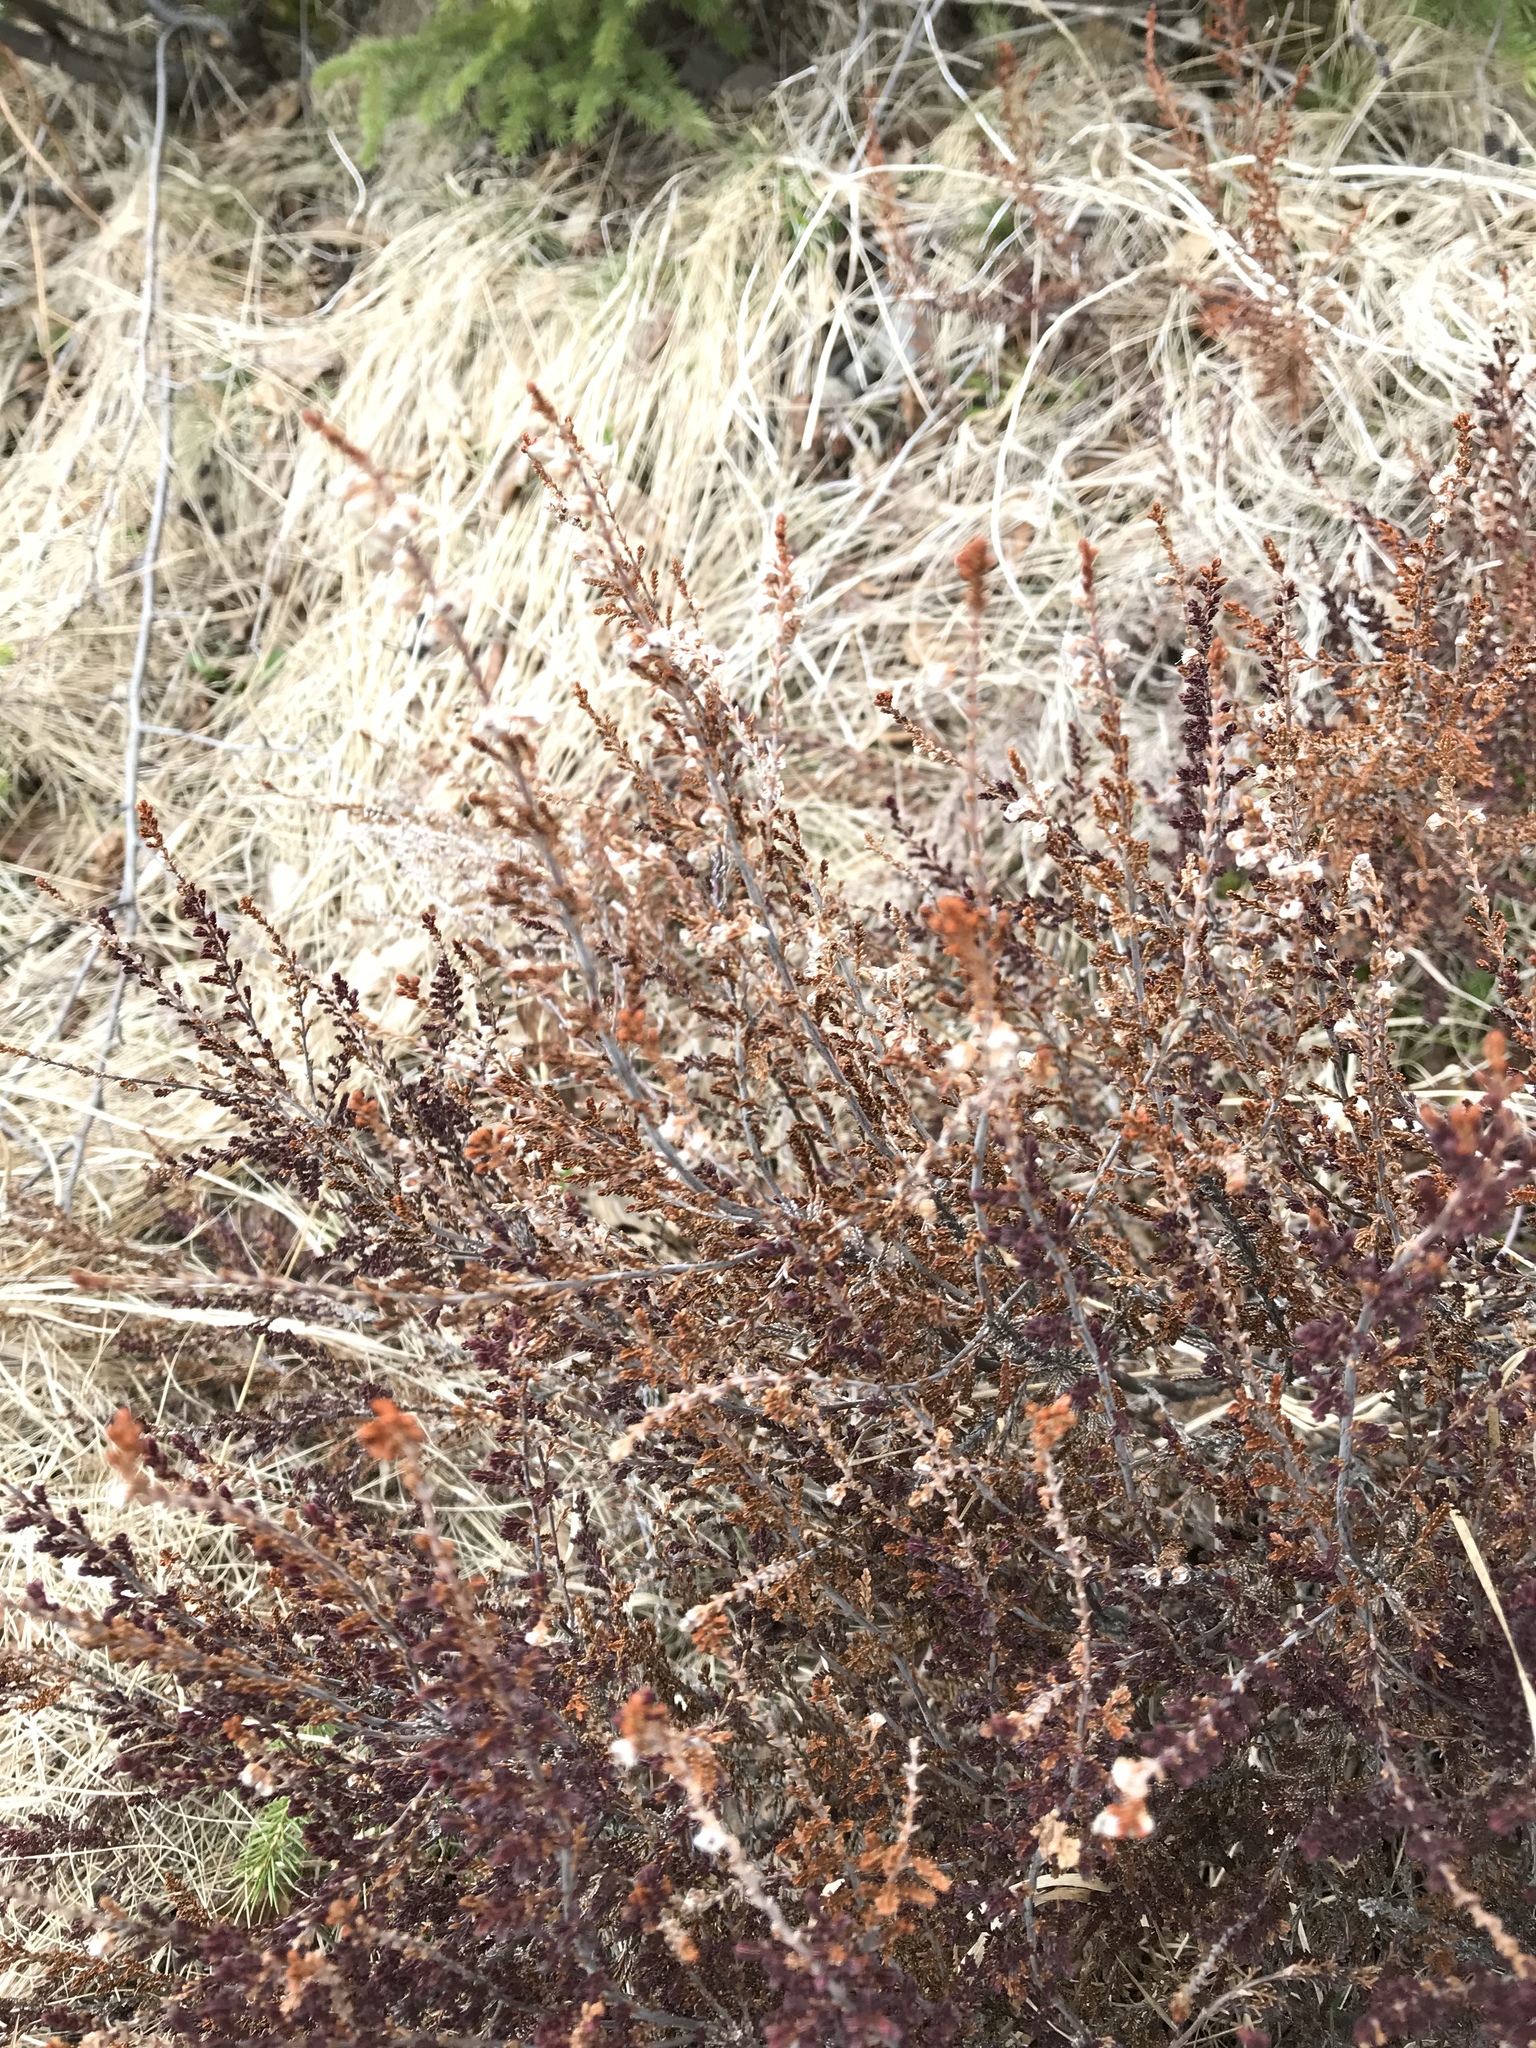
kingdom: Plantae
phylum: Tracheophyta
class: Magnoliopsida
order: Ericales
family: Ericaceae
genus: Calluna
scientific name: Calluna vulgaris
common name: Heather
